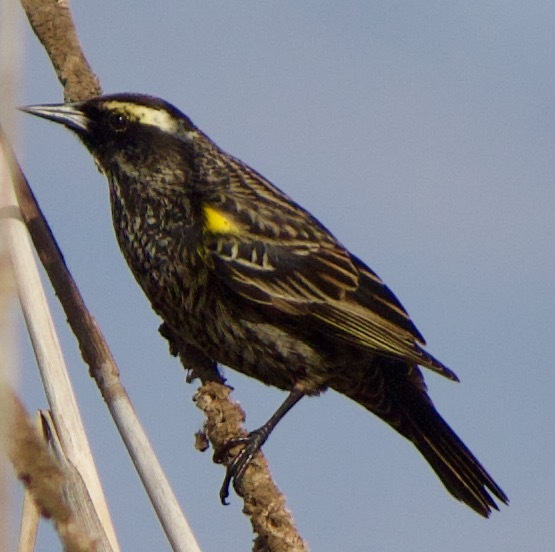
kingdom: Animalia
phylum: Chordata
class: Aves
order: Passeriformes
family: Icteridae
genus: Agelasticus
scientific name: Agelasticus thilius
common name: Yellow-winged blackbird
